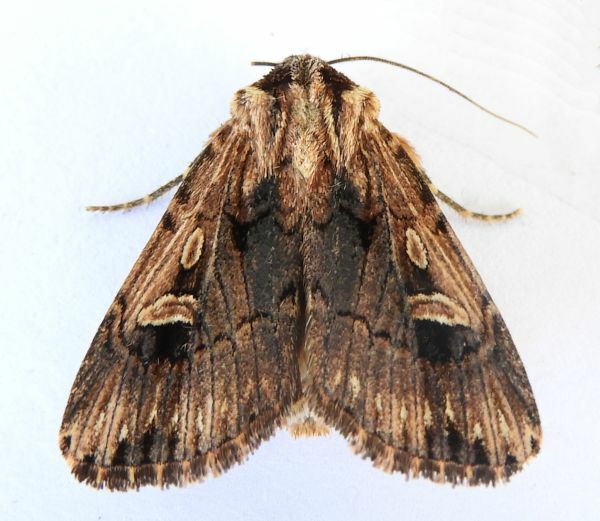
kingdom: Animalia
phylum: Arthropoda
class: Insecta
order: Lepidoptera
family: Noctuidae
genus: Dichagyris
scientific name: Dichagyris cataclivis
